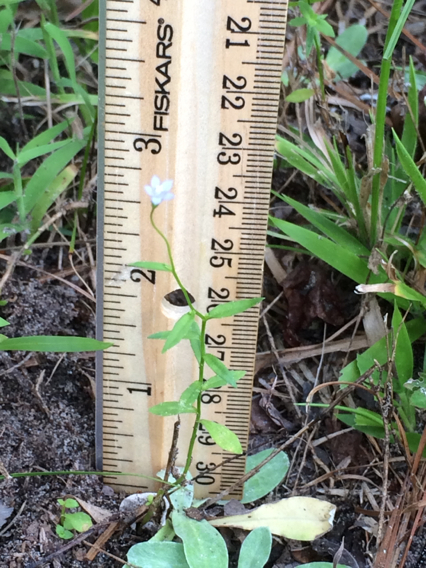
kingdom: Plantae
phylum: Tracheophyta
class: Magnoliopsida
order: Asterales
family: Campanulaceae
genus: Wahlenbergia
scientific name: Wahlenbergia marginata
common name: Southern rockbell
